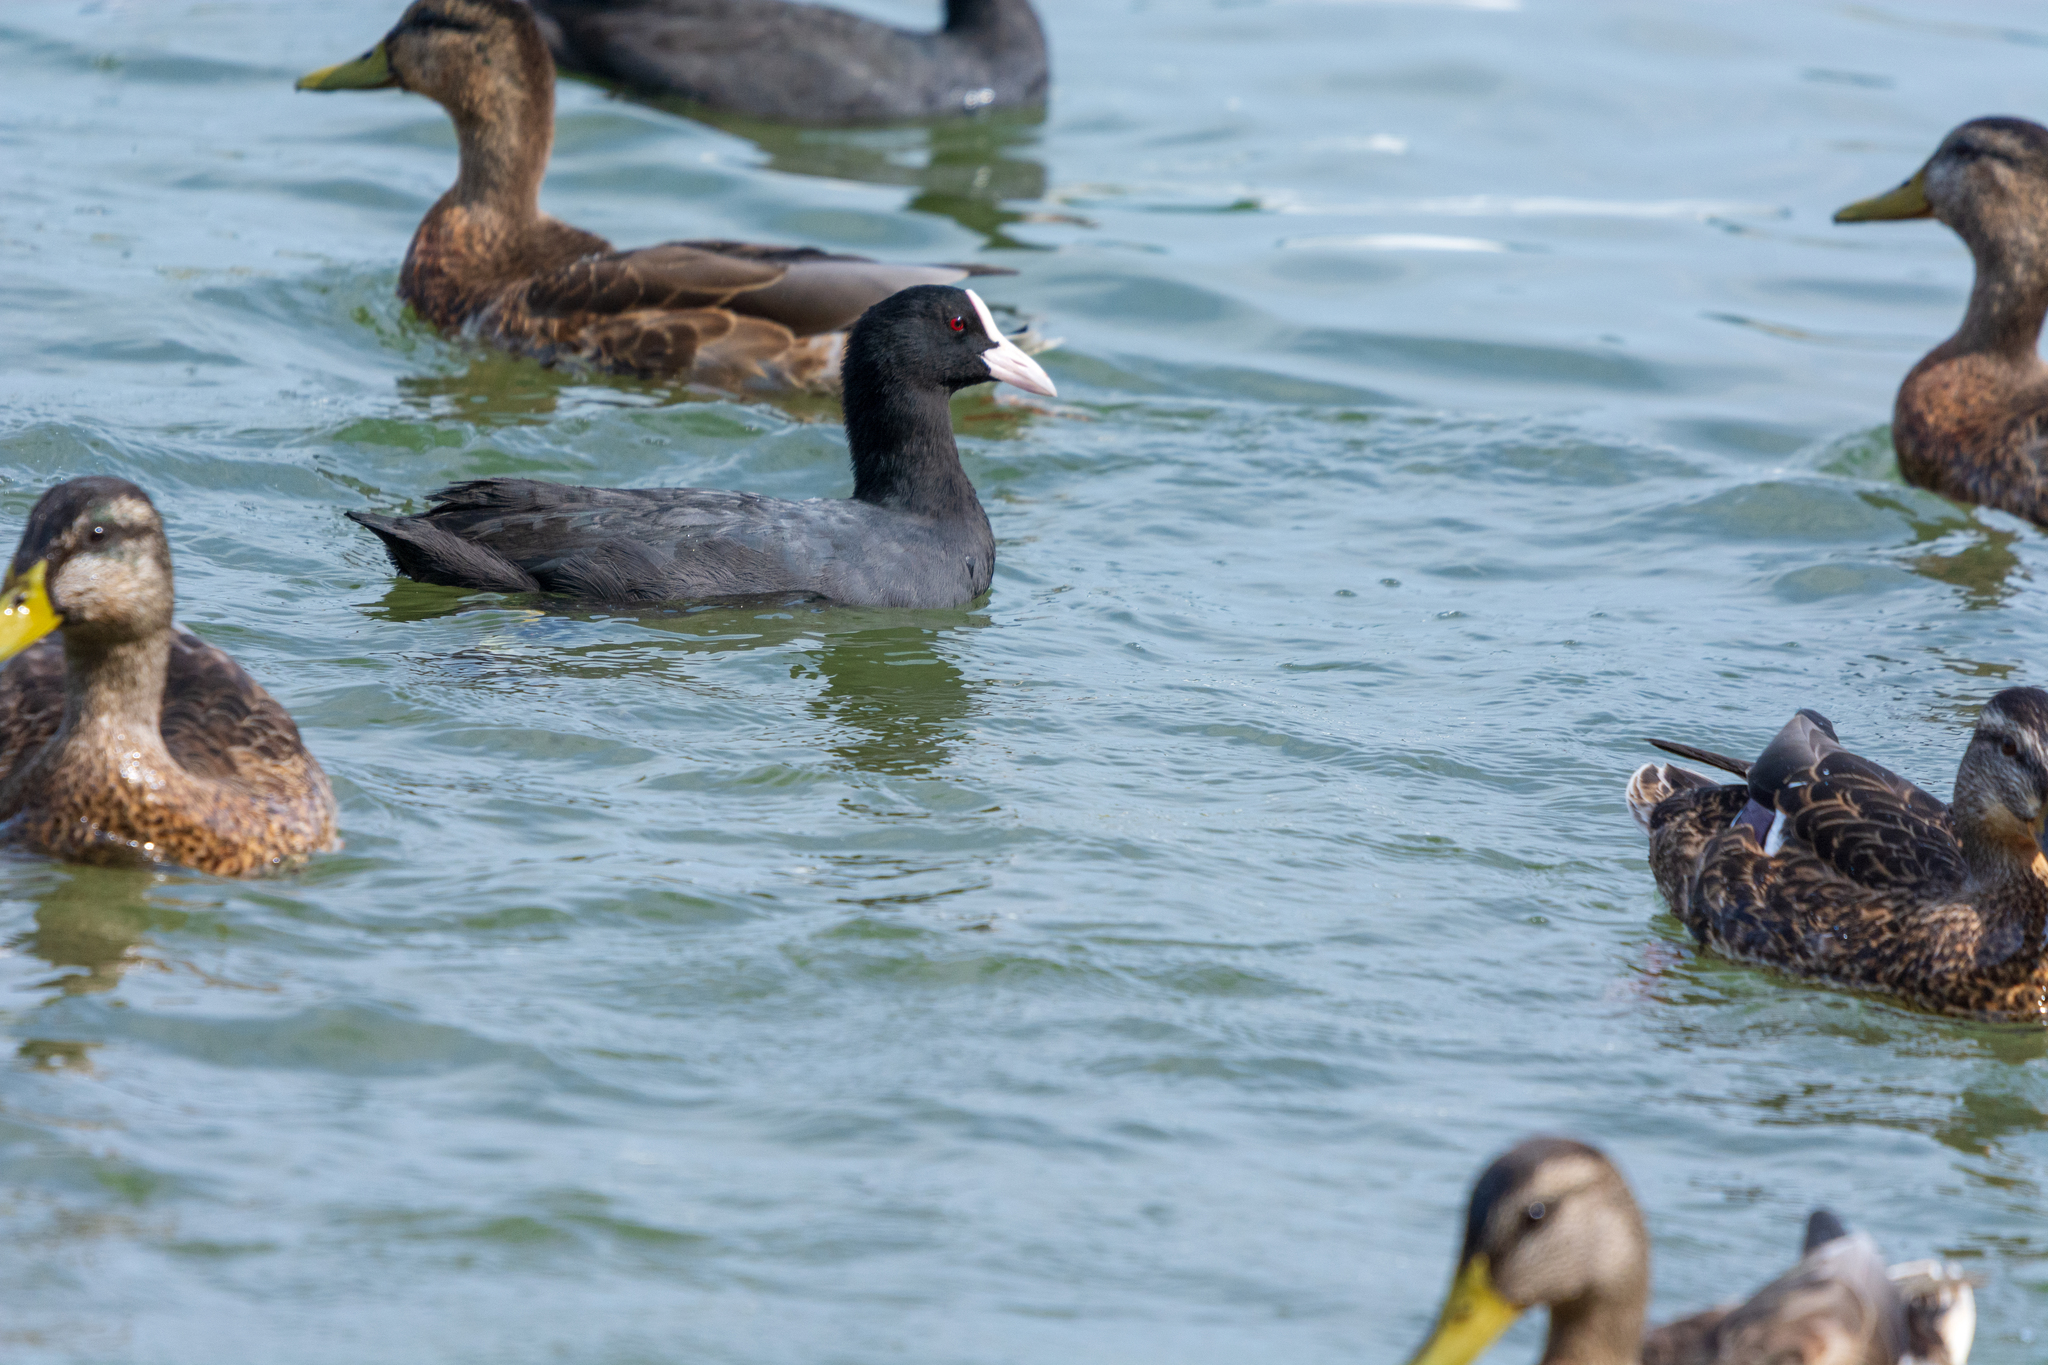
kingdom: Animalia
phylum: Chordata
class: Aves
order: Gruiformes
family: Rallidae
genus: Fulica
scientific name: Fulica atra
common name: Eurasian coot
